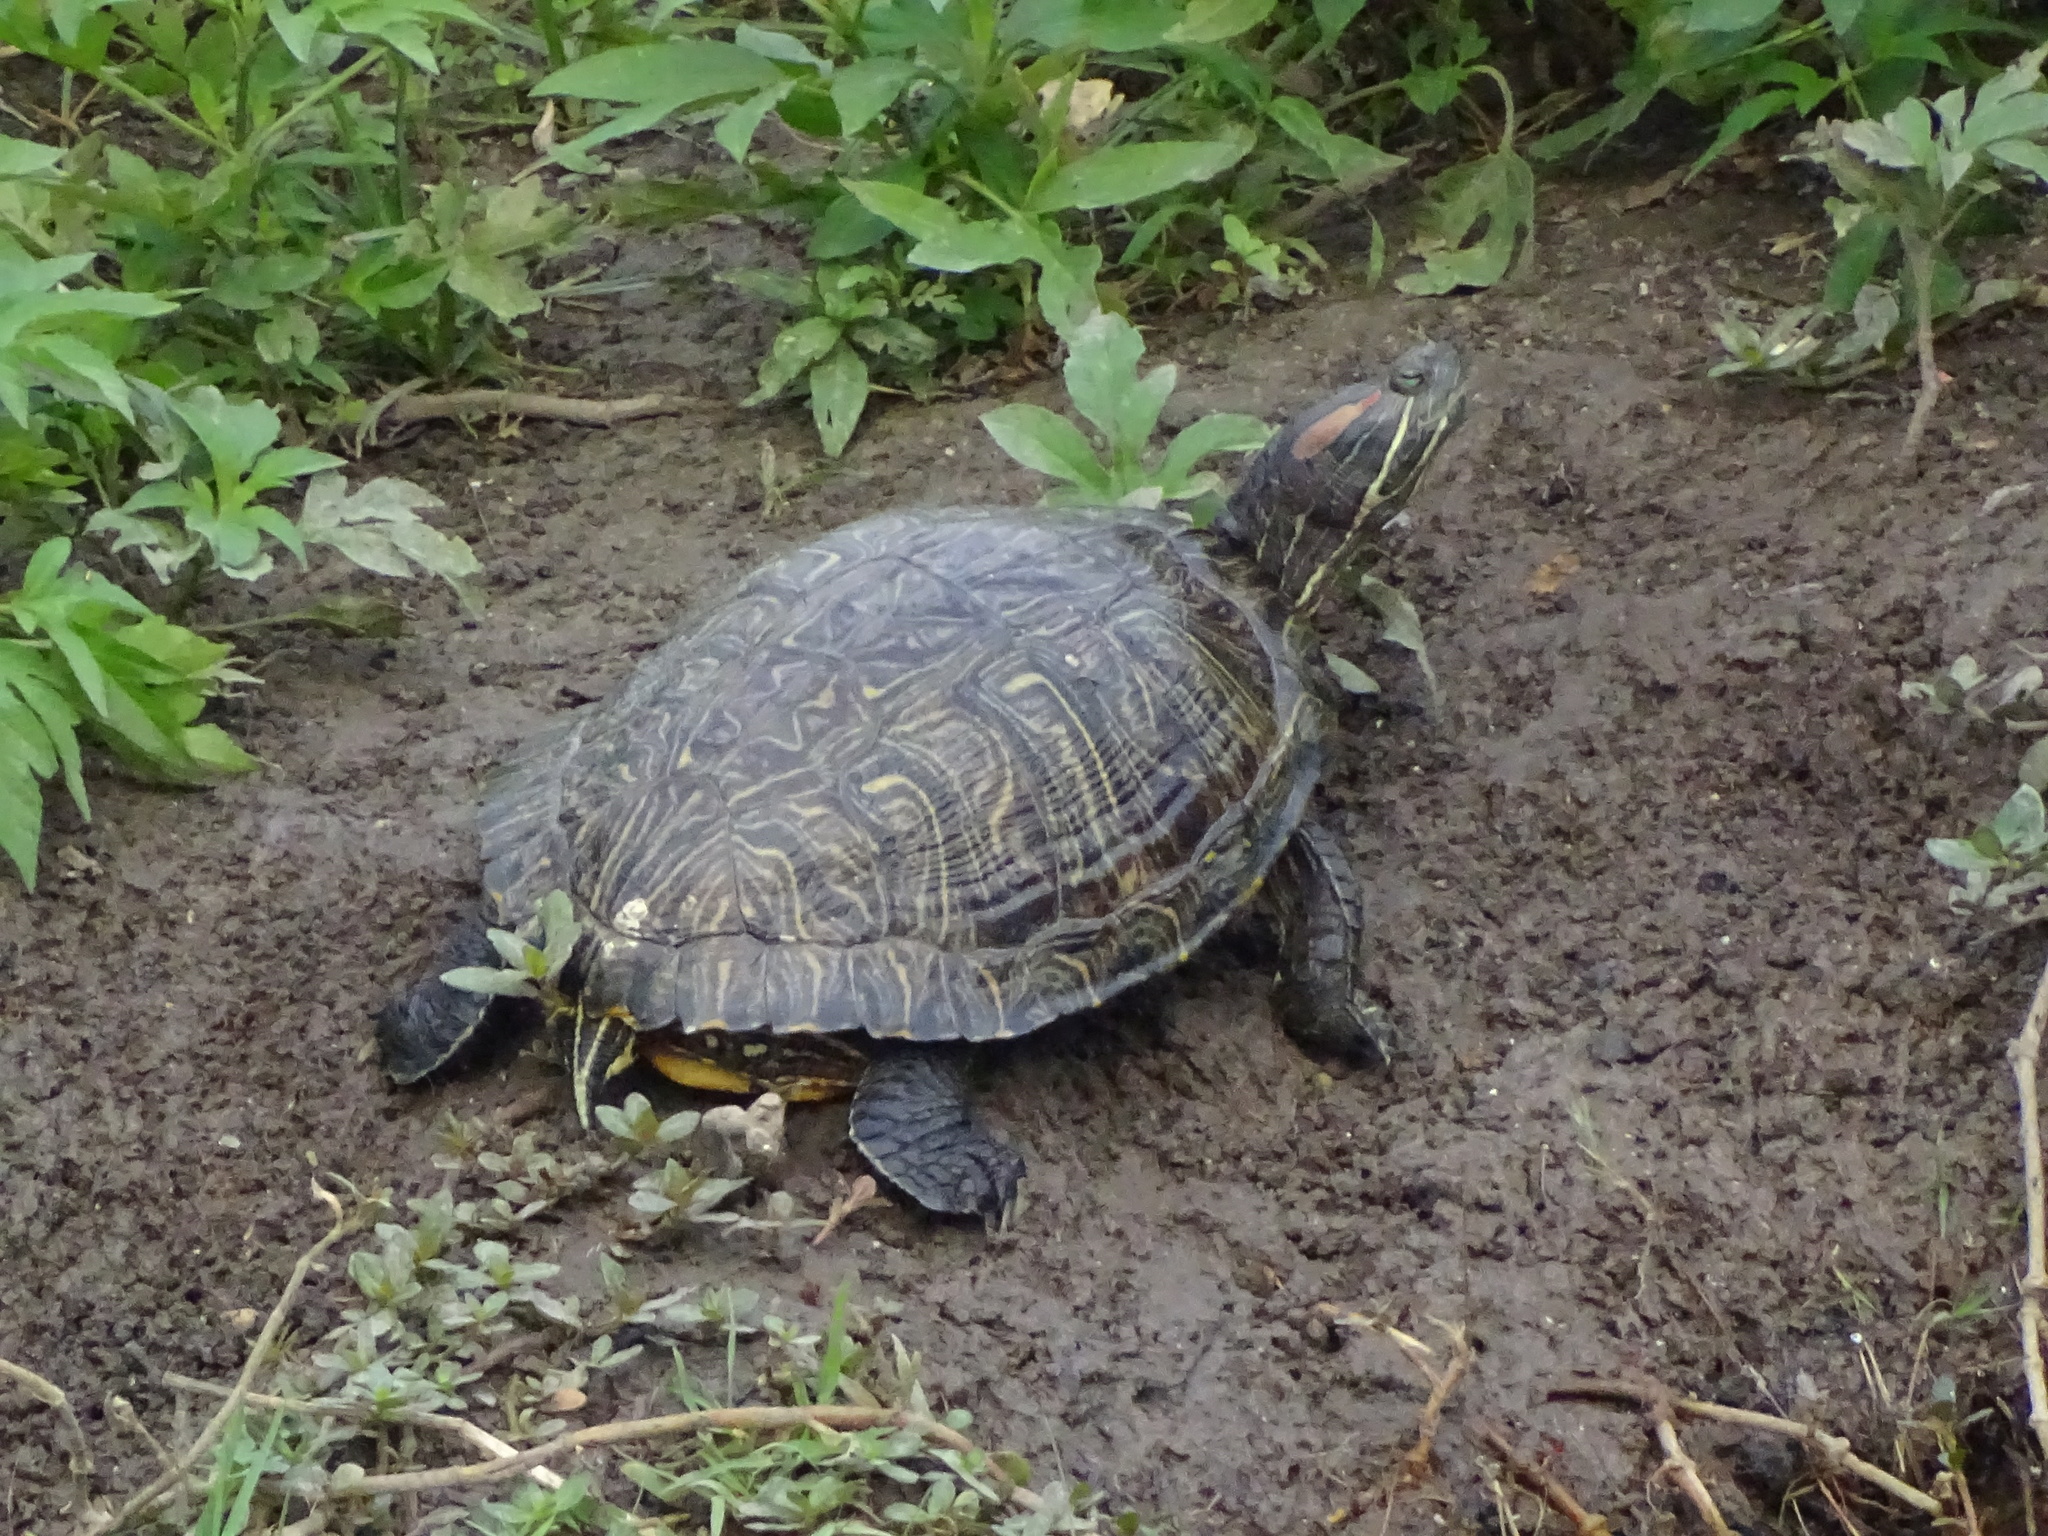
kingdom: Animalia
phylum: Chordata
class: Testudines
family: Emydidae
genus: Trachemys
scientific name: Trachemys scripta
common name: Slider
